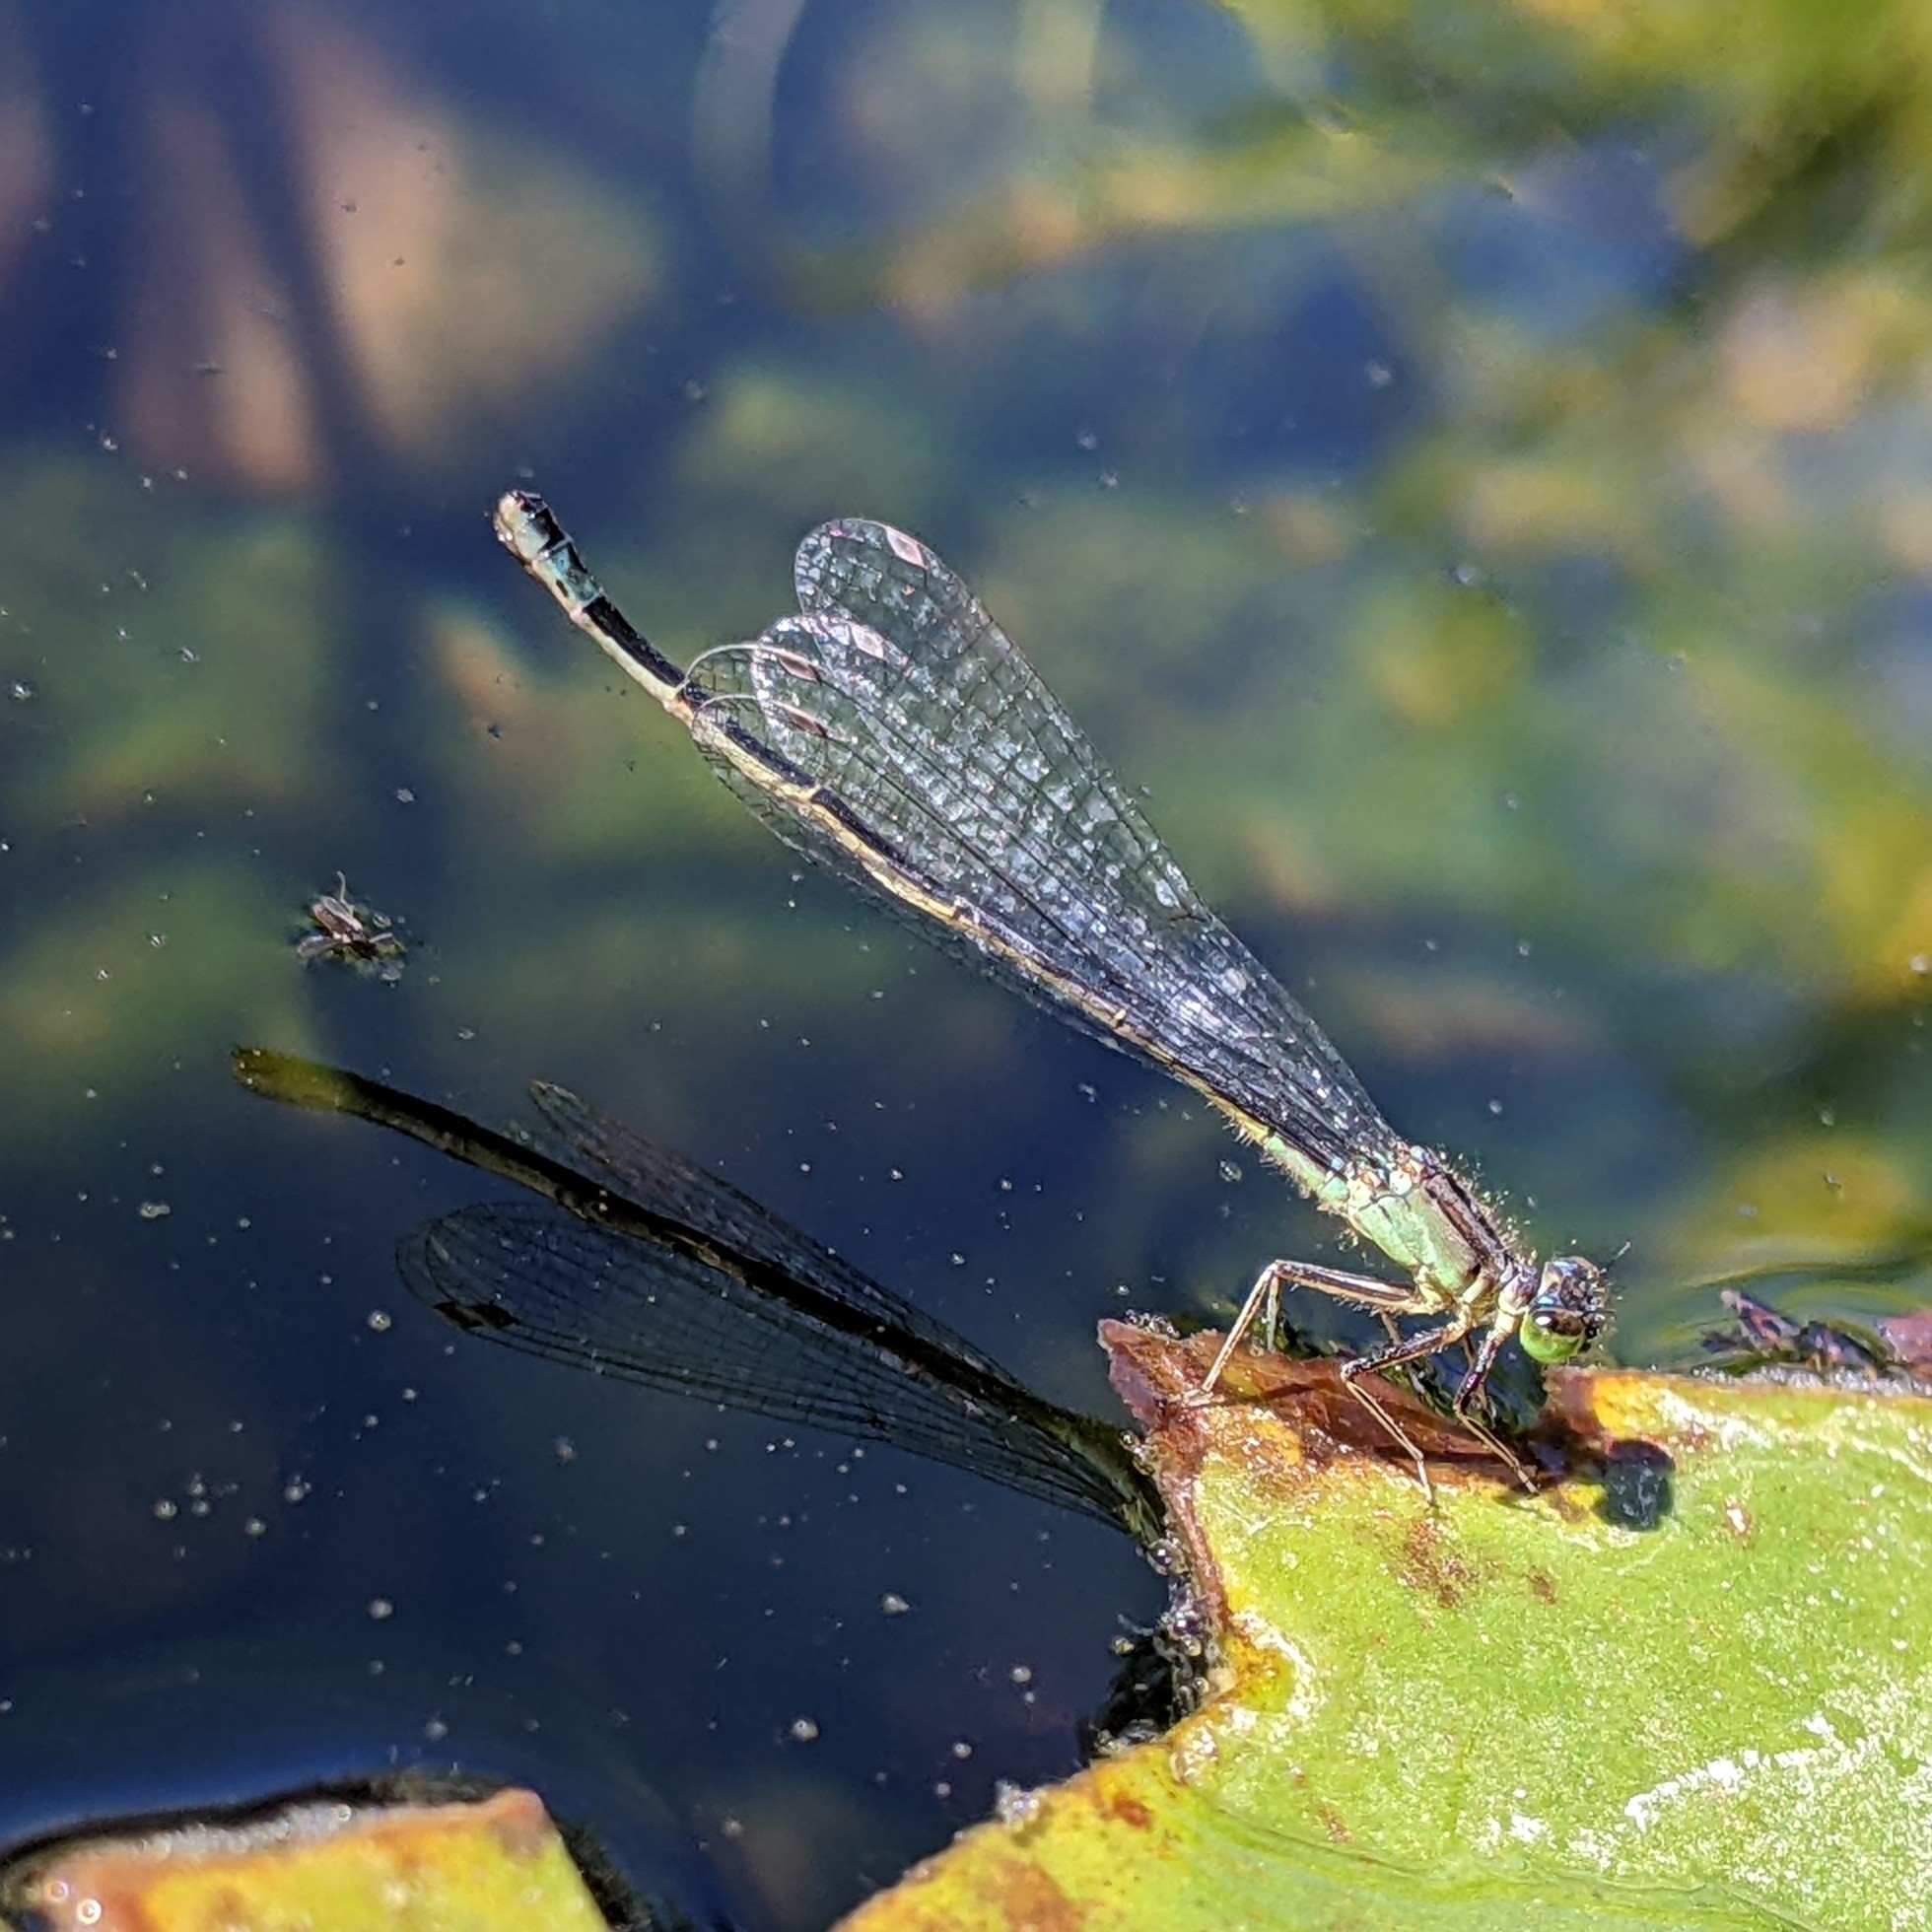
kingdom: Animalia
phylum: Arthropoda
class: Insecta
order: Odonata
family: Coenagrionidae
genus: Ischnura
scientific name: Ischnura cervula
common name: Pacific forktail
